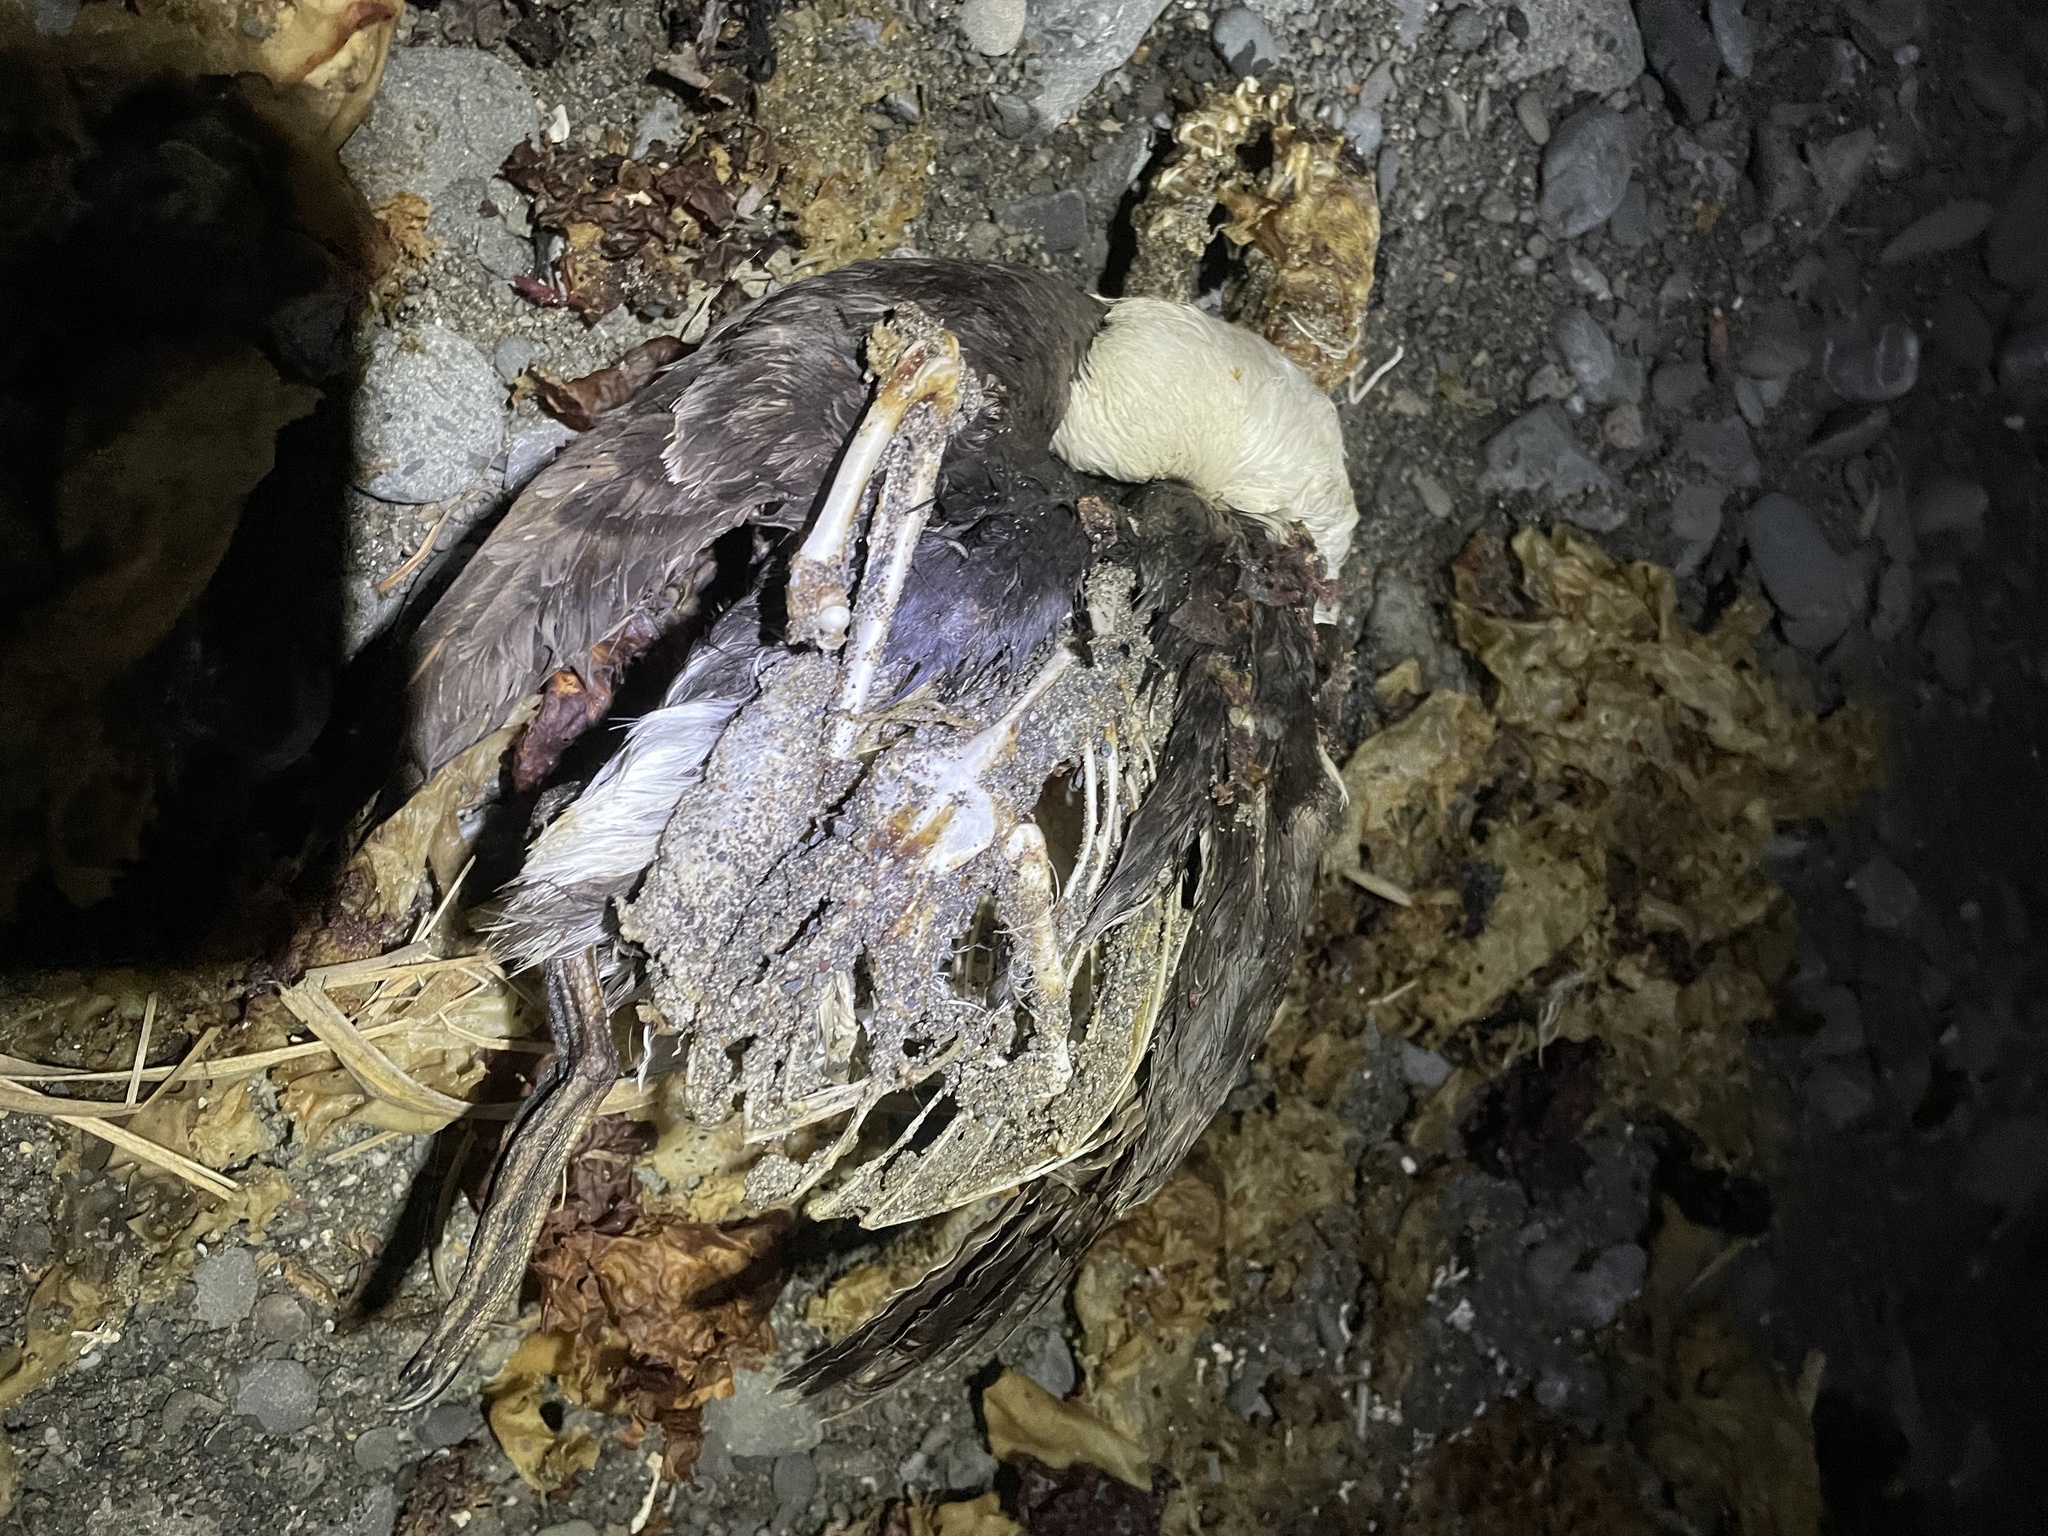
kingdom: Animalia
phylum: Chordata
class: Aves
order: Charadriiformes
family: Alcidae
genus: Uria
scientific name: Uria aalge
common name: Common murre
